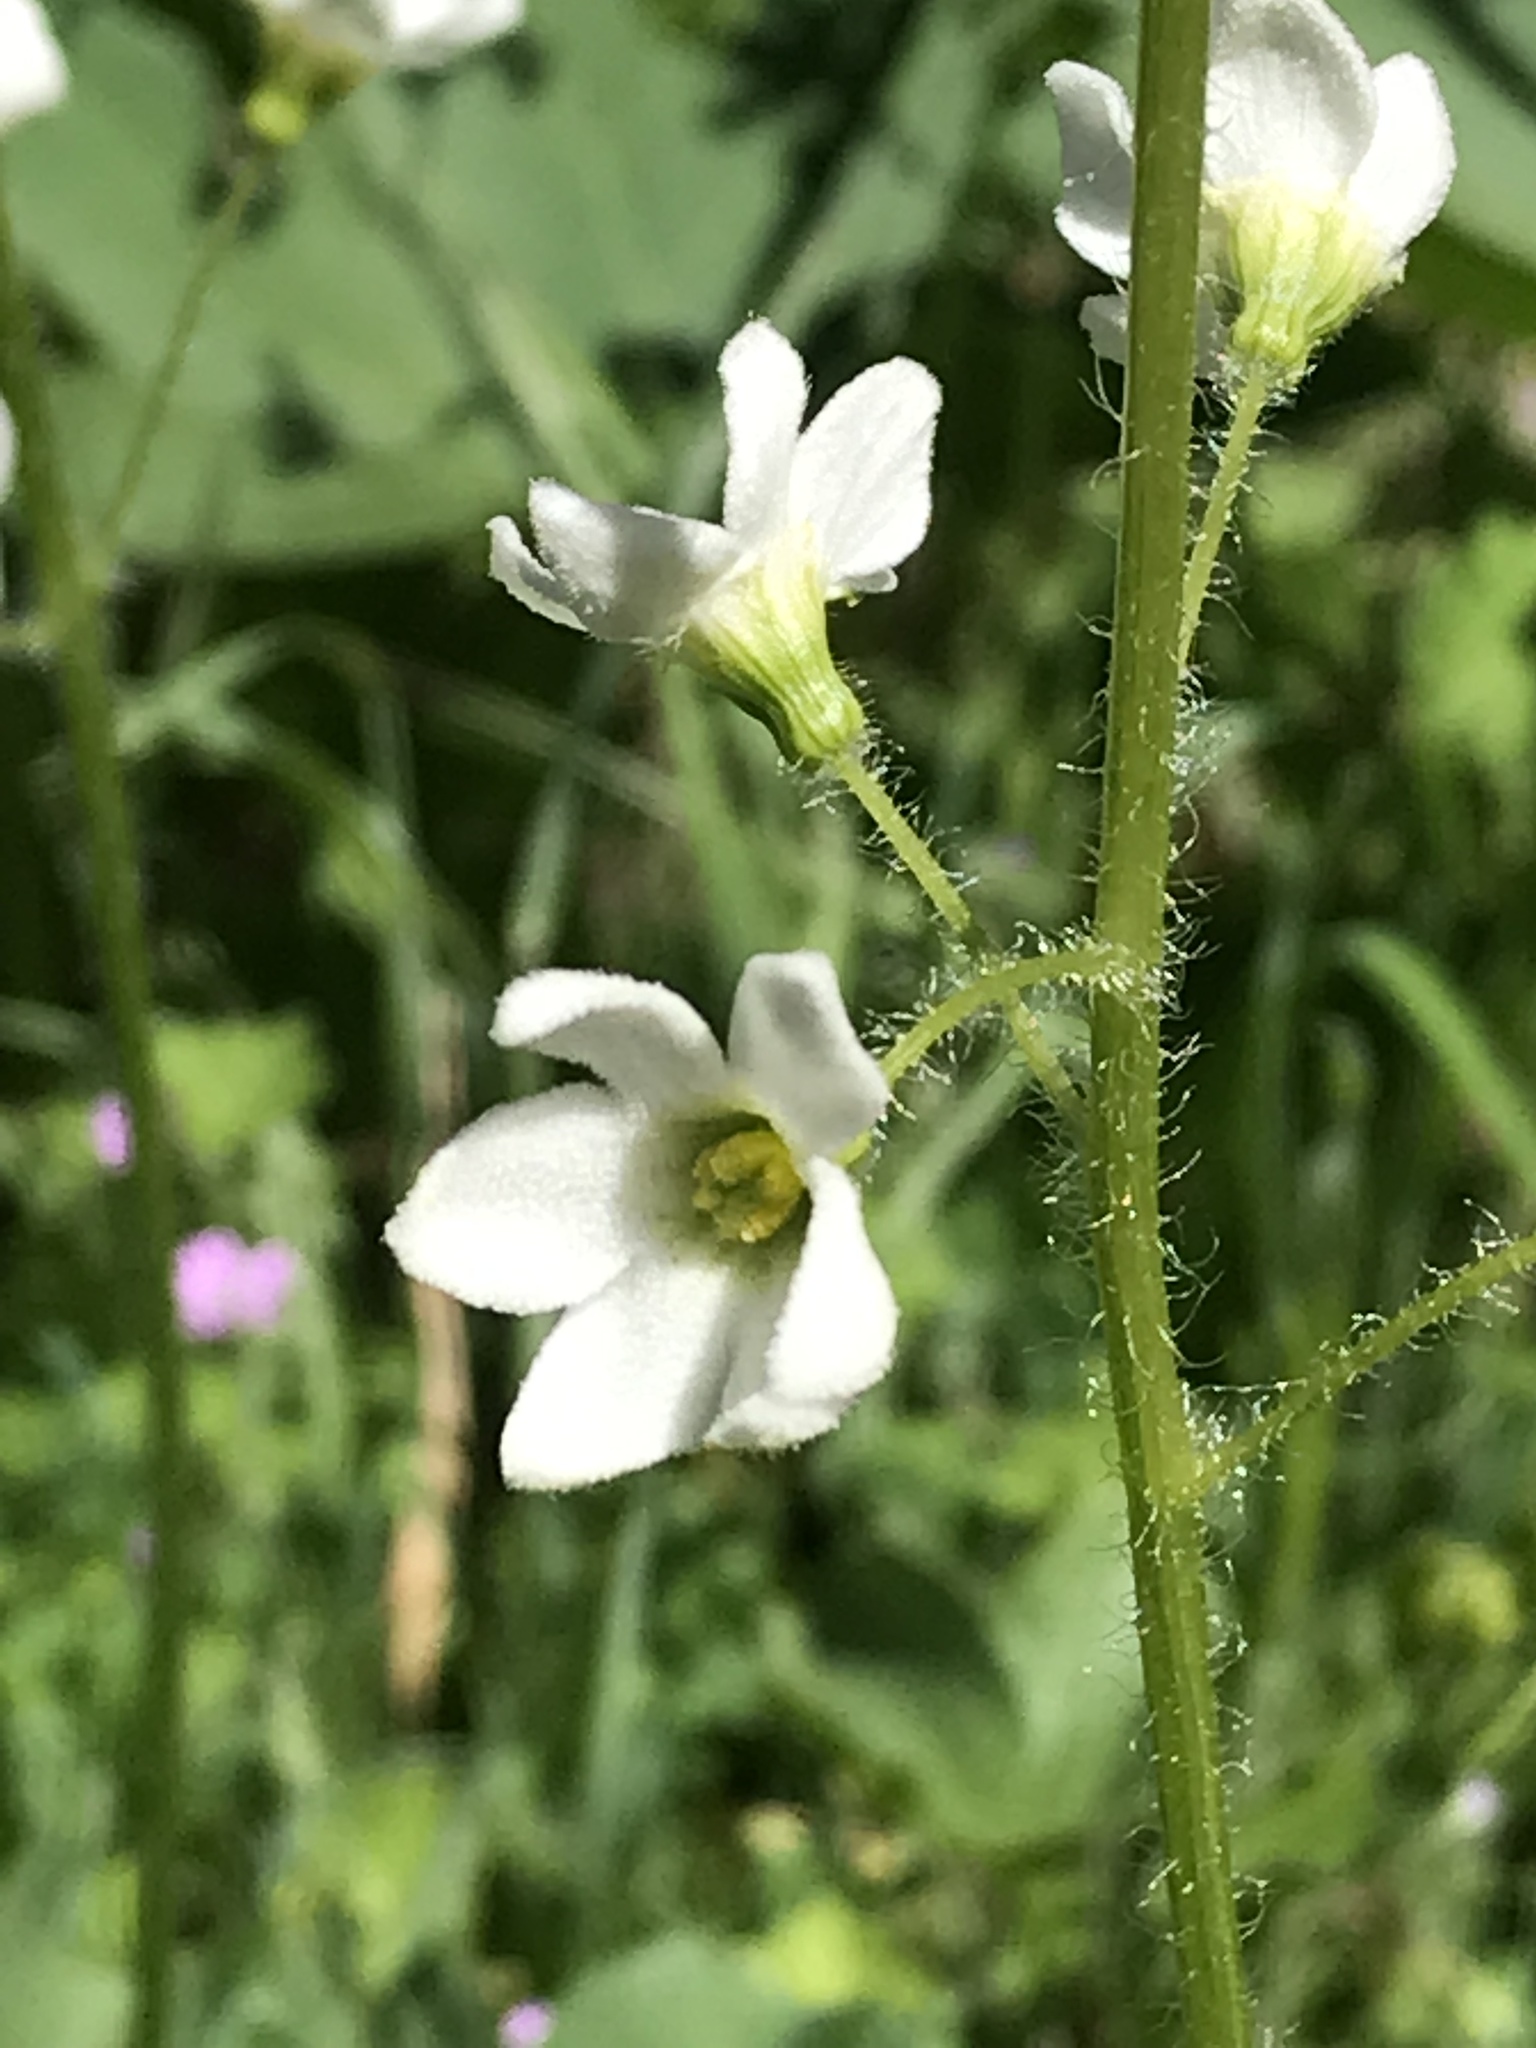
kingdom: Plantae
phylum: Tracheophyta
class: Magnoliopsida
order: Cucurbitales
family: Cucurbitaceae
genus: Marah
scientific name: Marah oregana
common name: Coastal manroot
